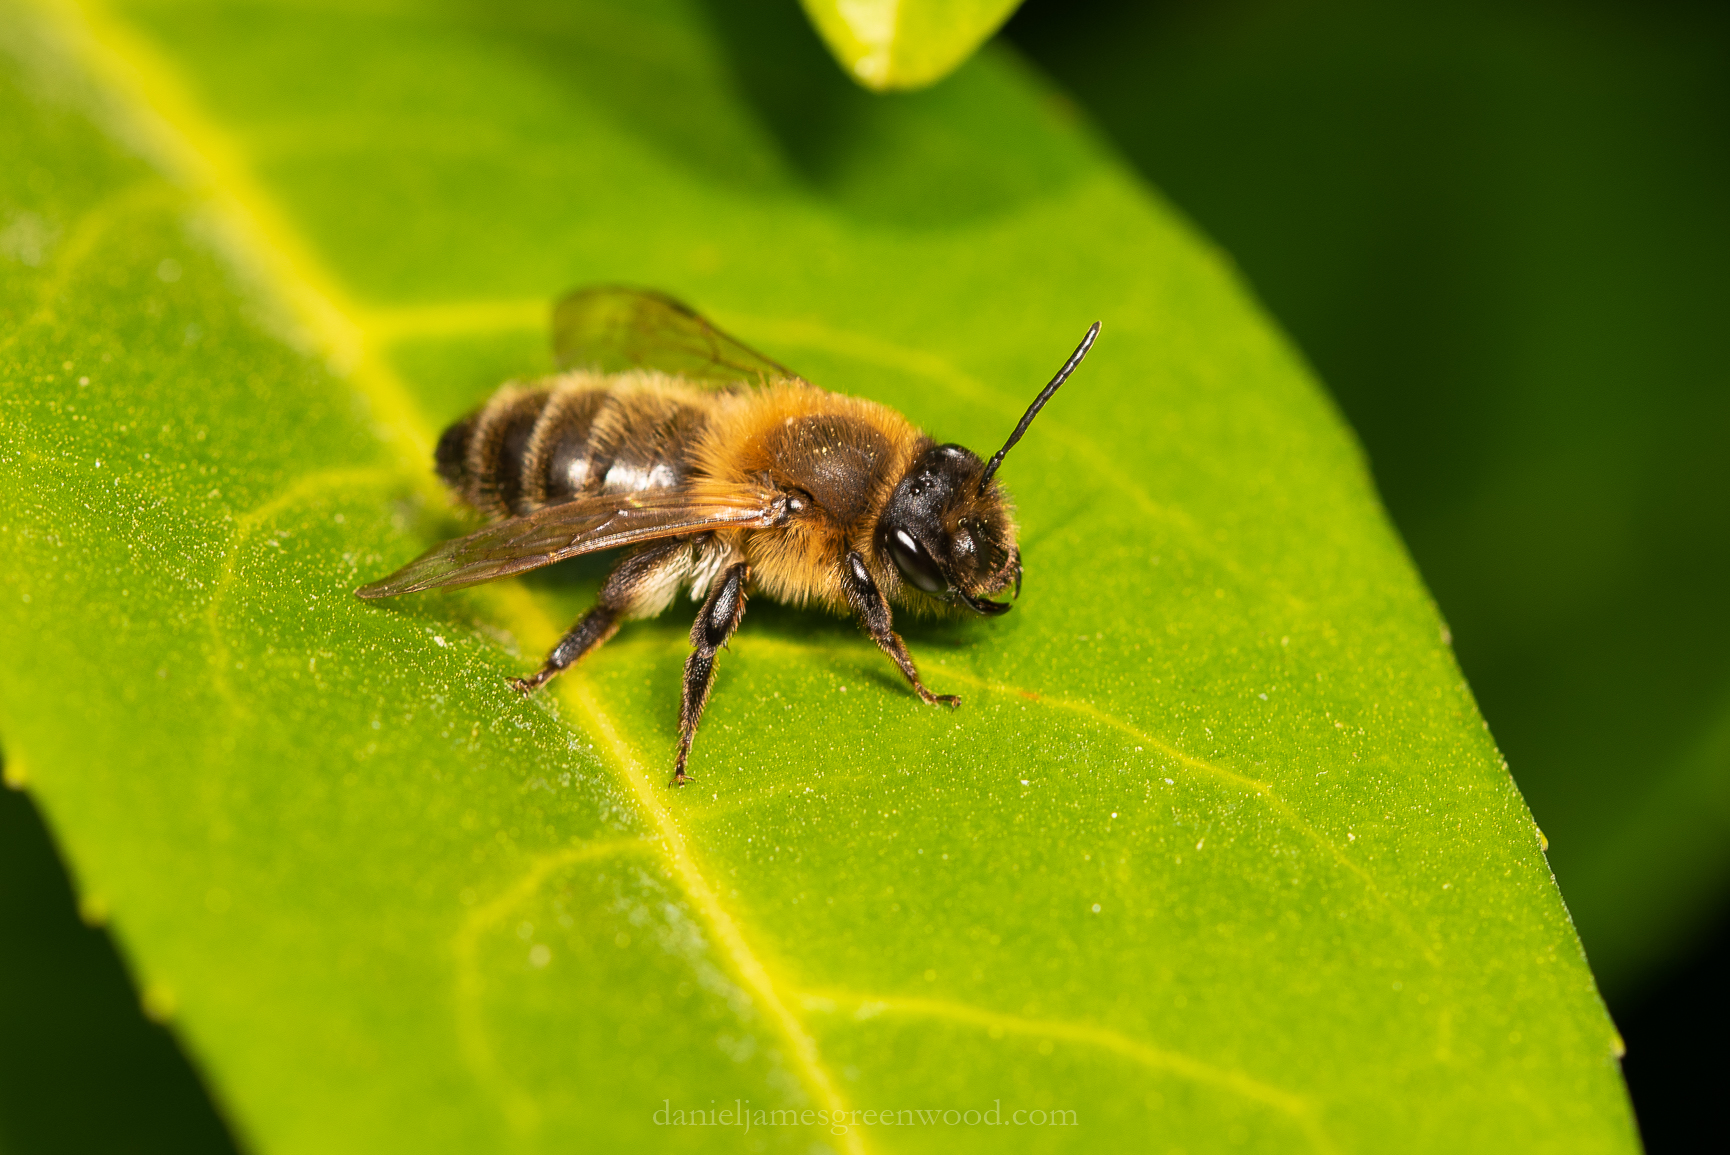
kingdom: Animalia
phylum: Arthropoda
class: Insecta
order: Hymenoptera
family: Andrenidae
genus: Andrena
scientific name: Andrena carantonica
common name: Chocolate mining bee
